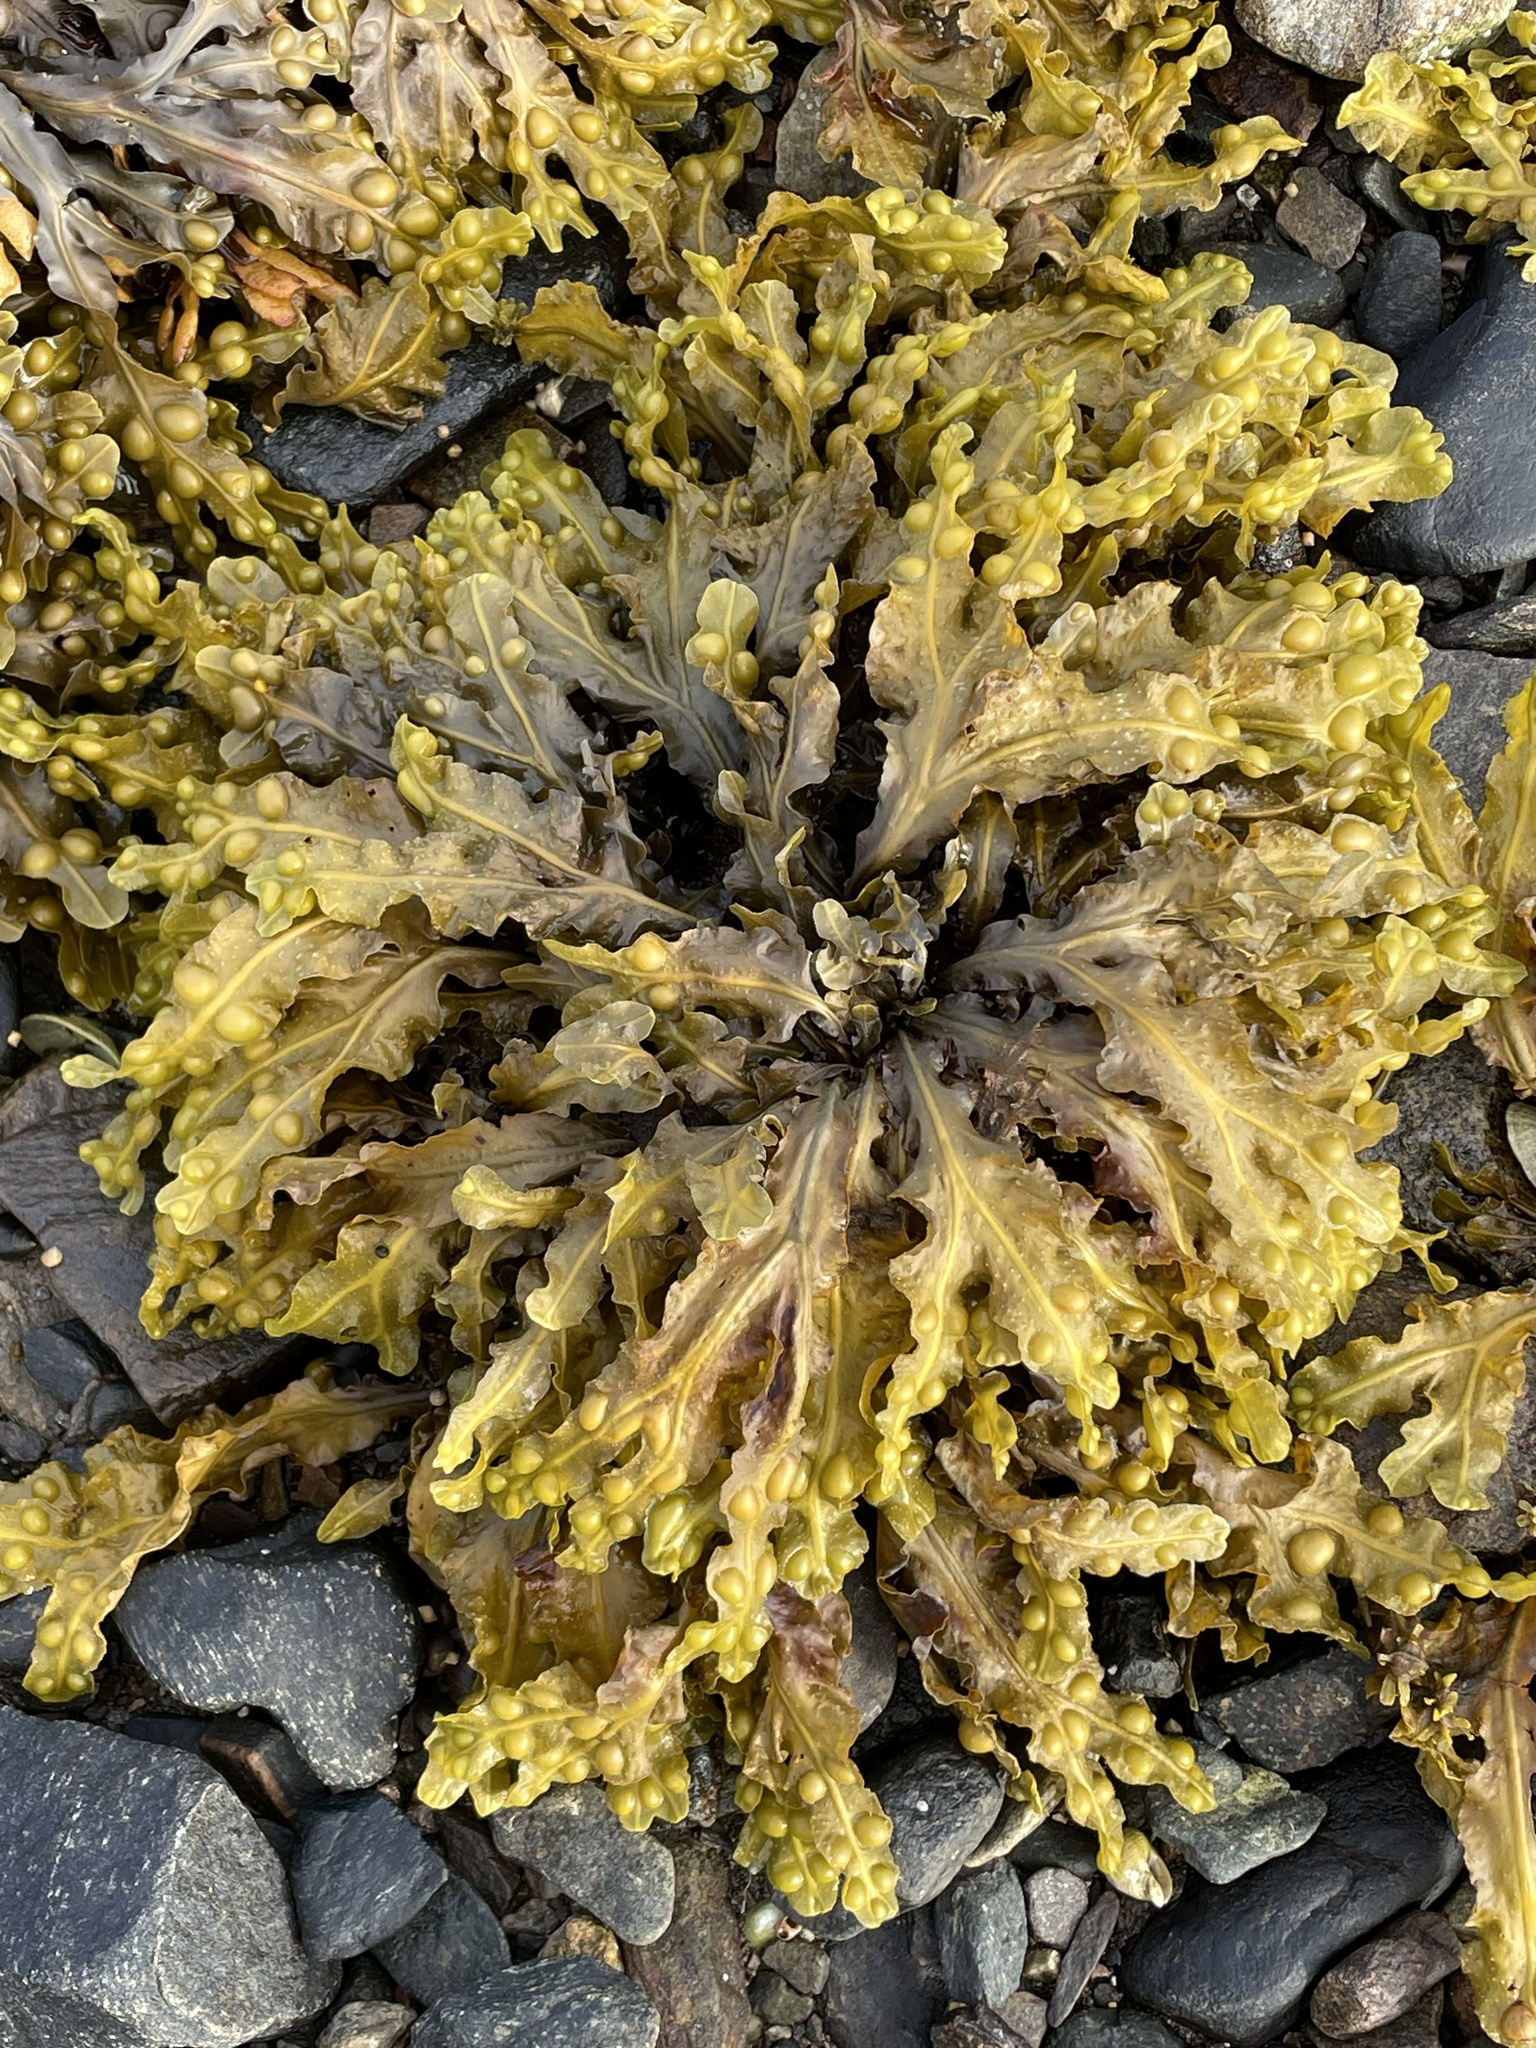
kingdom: Chromista
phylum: Ochrophyta
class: Phaeophyceae
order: Fucales
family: Fucaceae
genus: Fucus
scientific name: Fucus vesiculosus
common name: Bladder wrack
